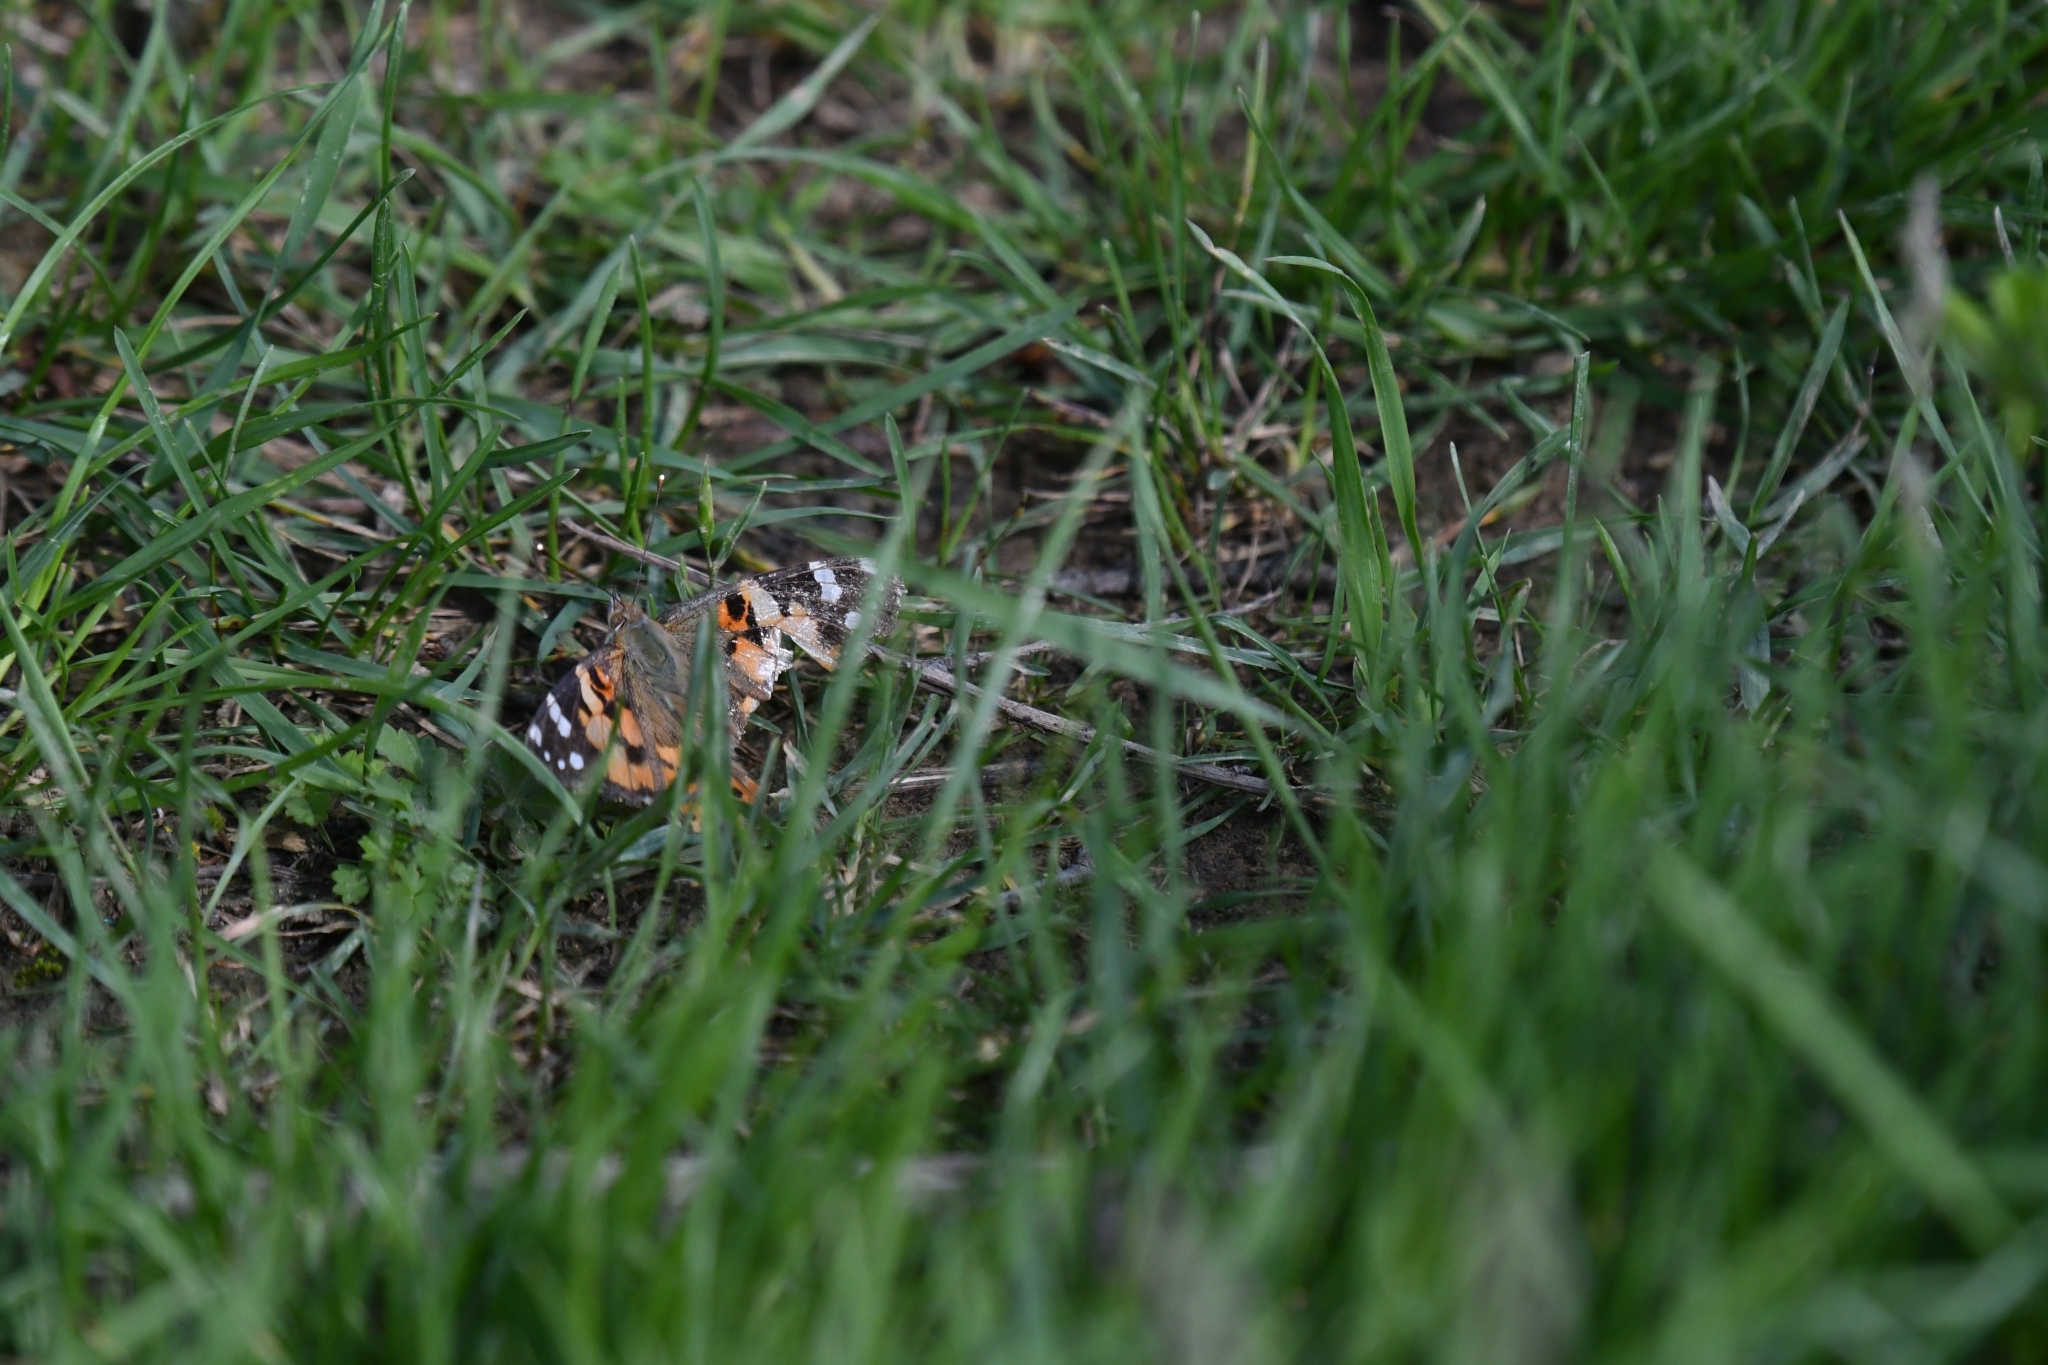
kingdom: Animalia
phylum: Arthropoda
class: Insecta
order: Lepidoptera
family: Nymphalidae
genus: Vanessa
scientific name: Vanessa cardui
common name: Painted lady
